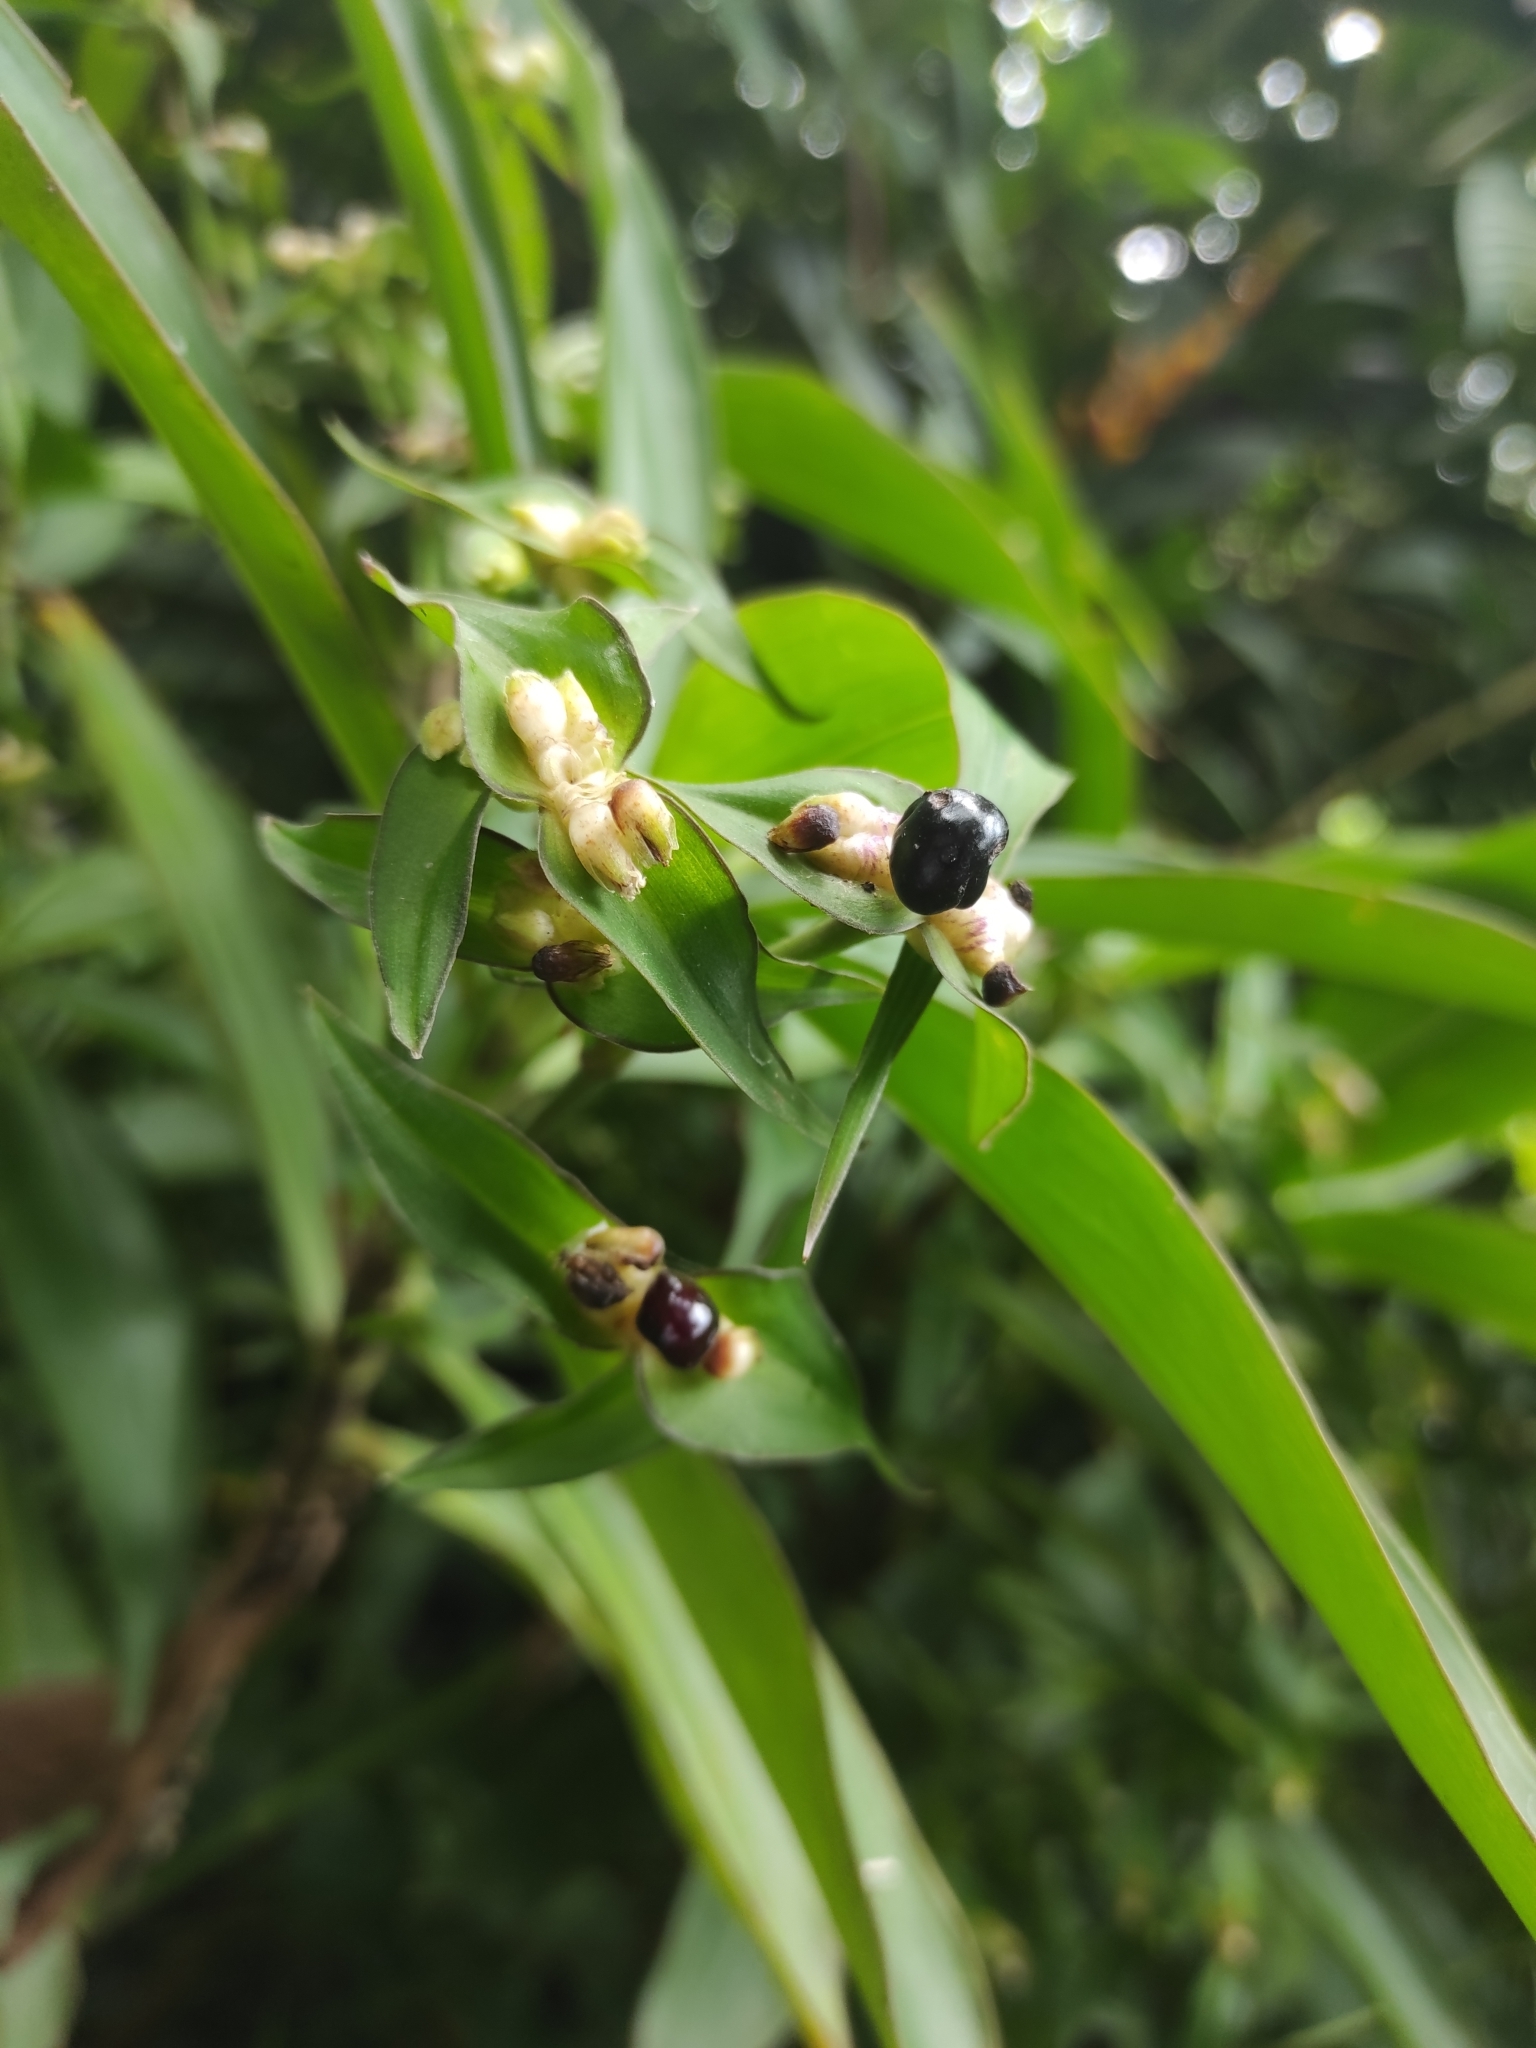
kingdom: Plantae
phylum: Tracheophyta
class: Liliopsida
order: Commelinales
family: Commelinaceae
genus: Tradescantia
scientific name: Tradescantia zanonia
